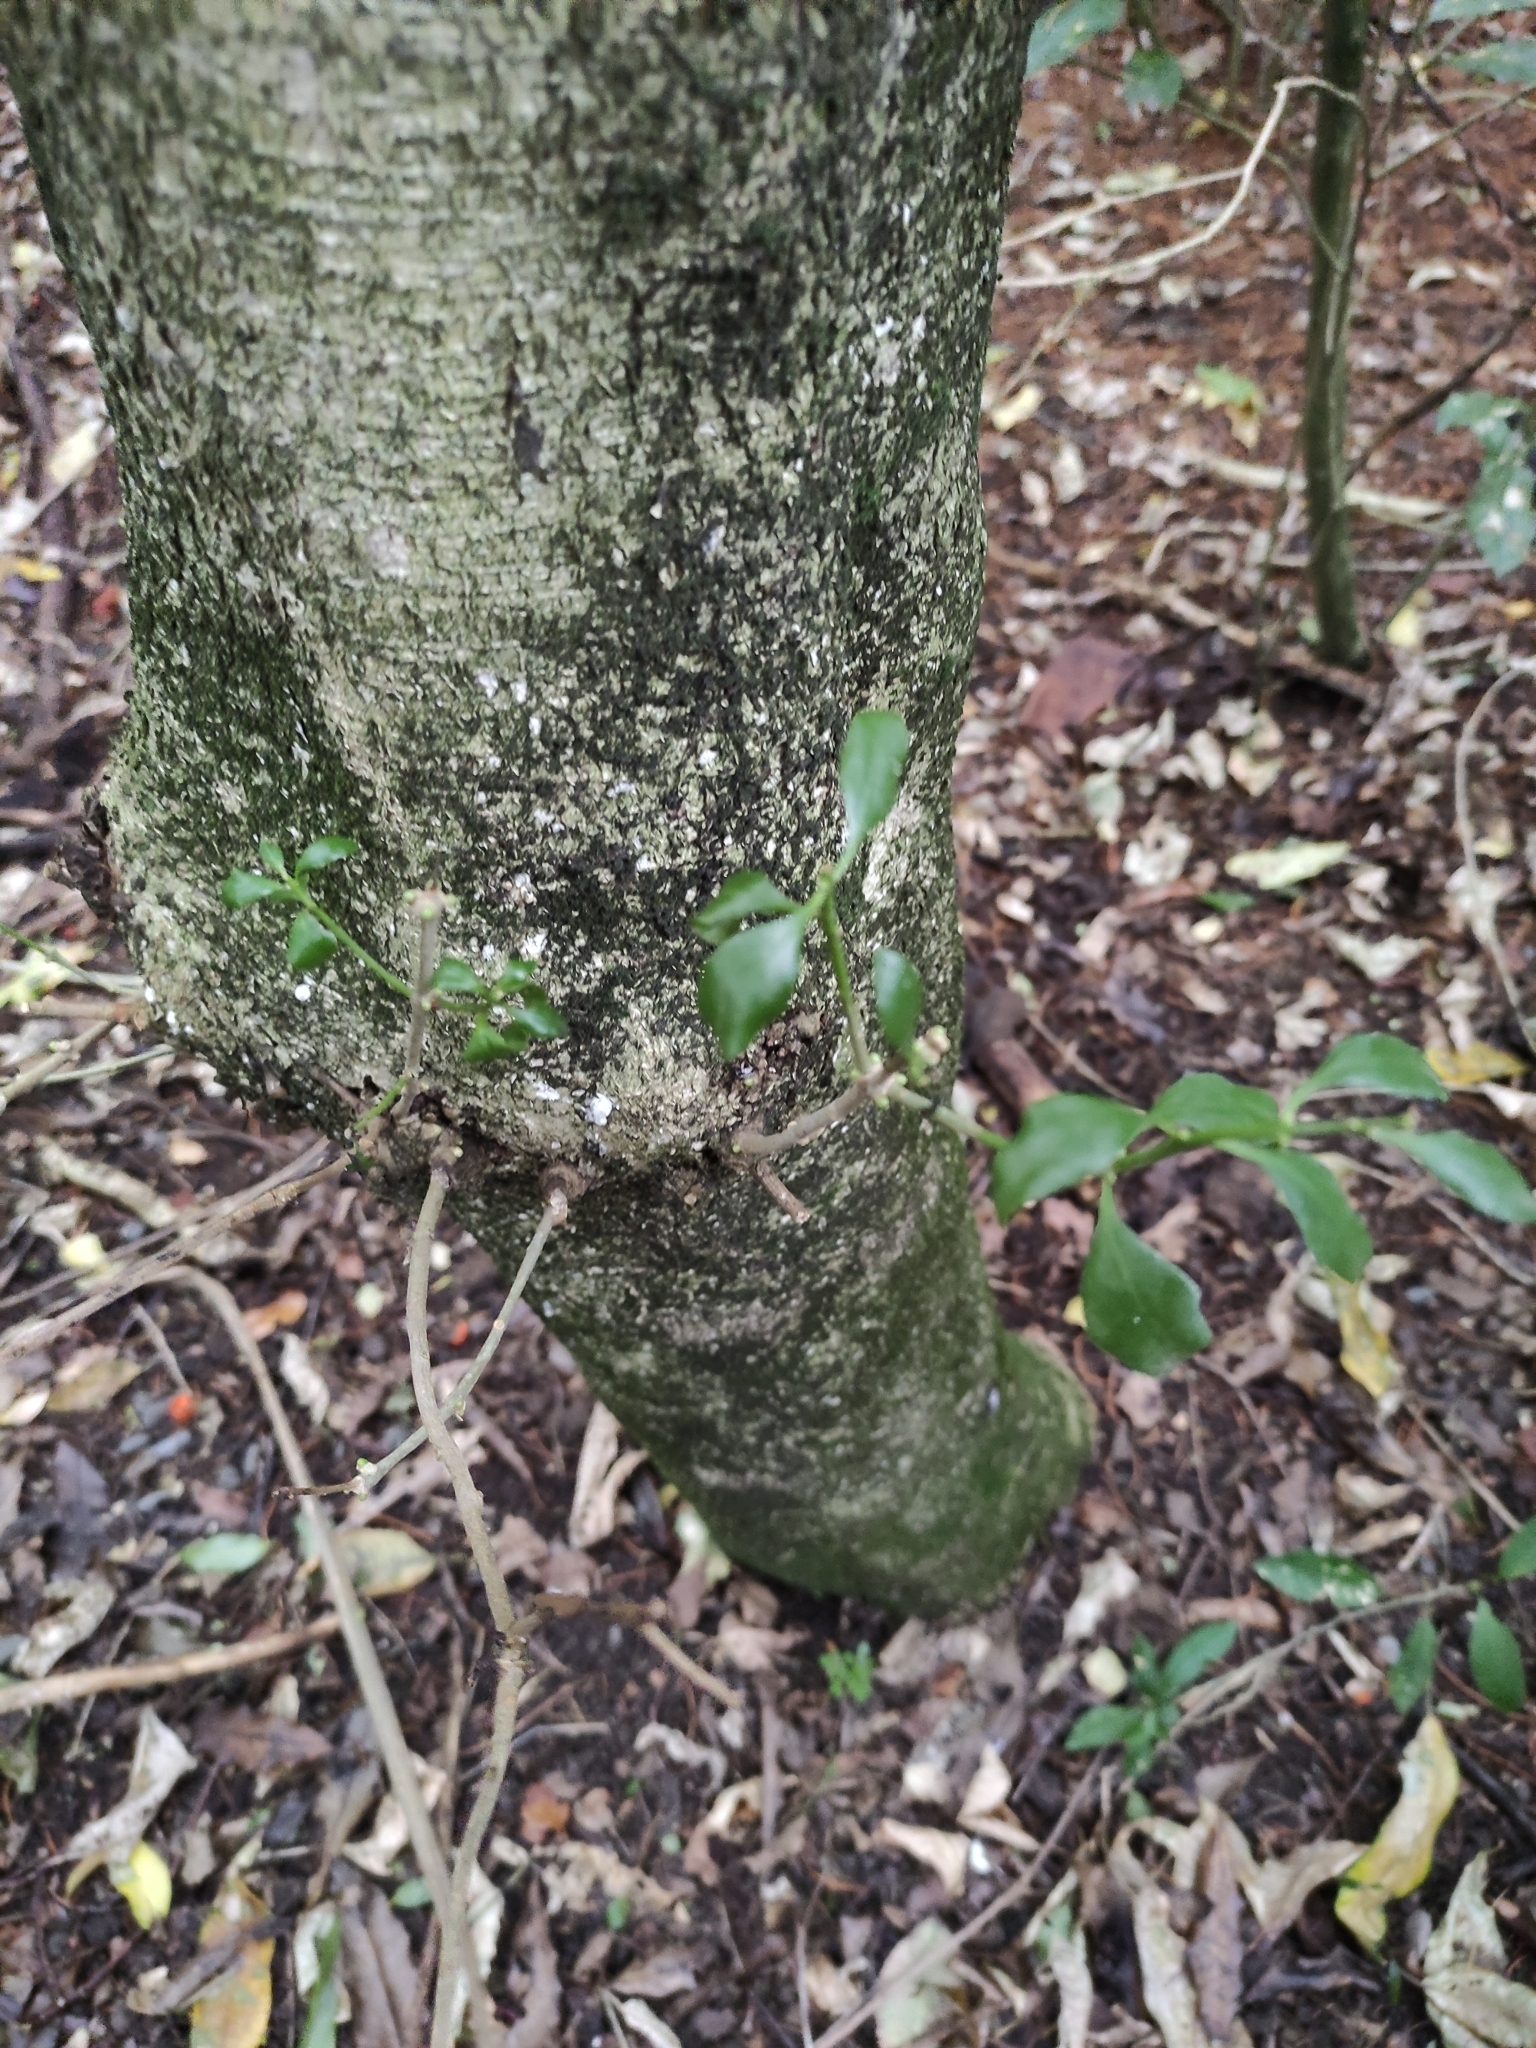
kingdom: Plantae
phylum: Tracheophyta
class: Magnoliopsida
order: Santalales
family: Loranthaceae
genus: Tupeia
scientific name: Tupeia antarctica
